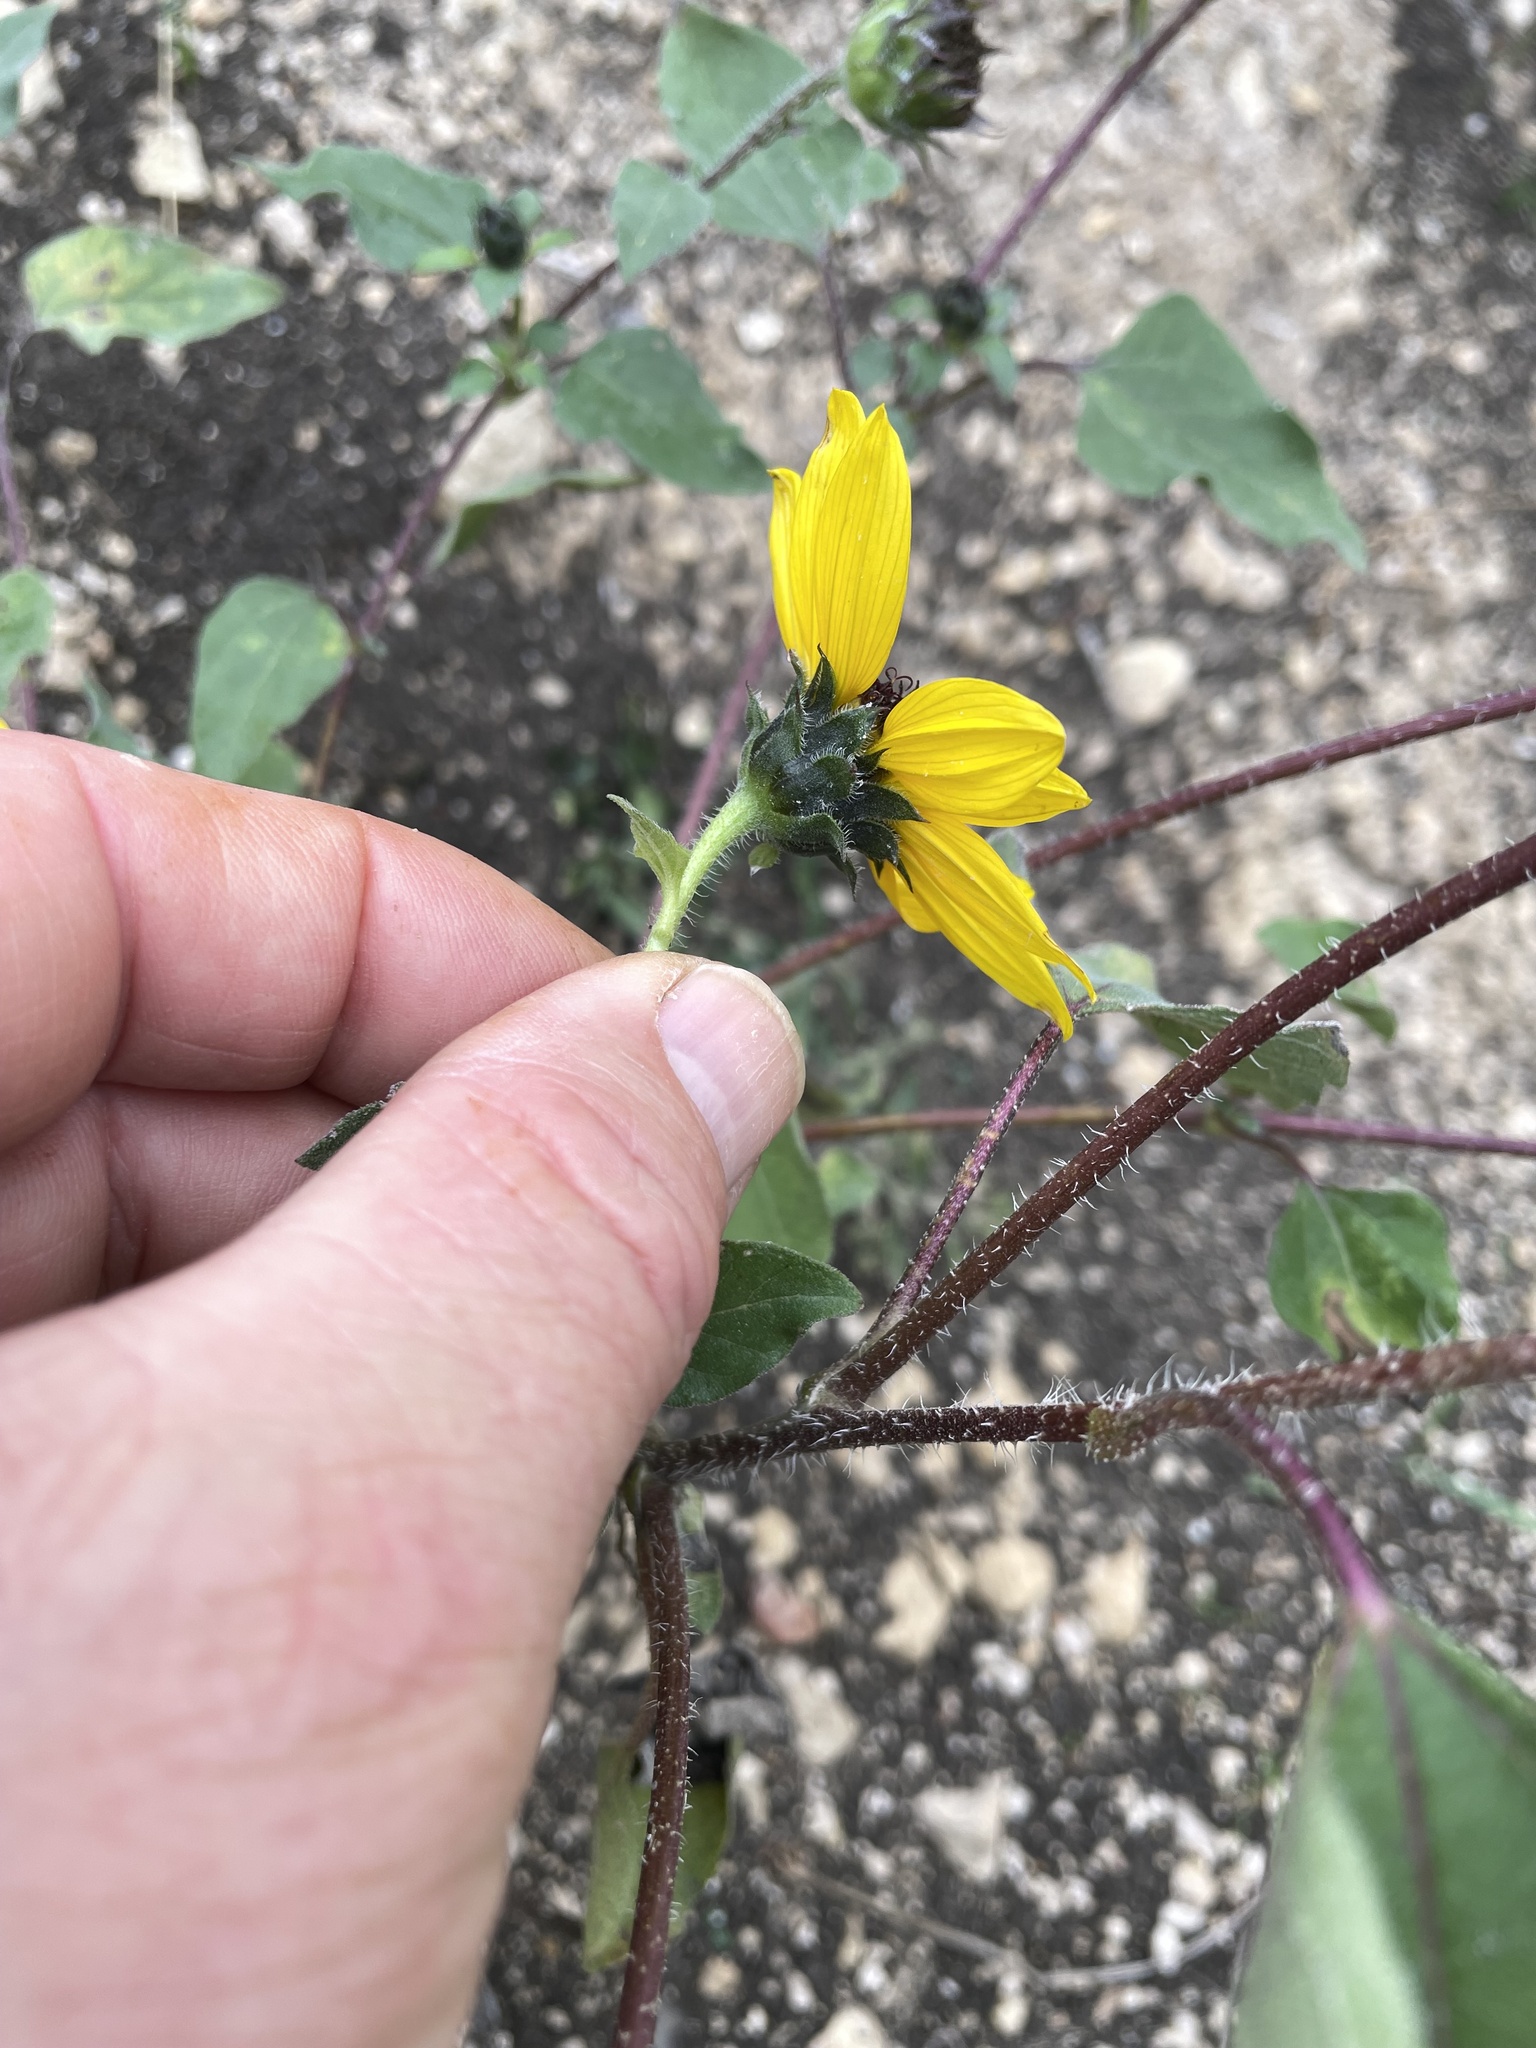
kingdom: Plantae
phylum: Tracheophyta
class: Magnoliopsida
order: Asterales
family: Asteraceae
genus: Helianthus
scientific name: Helianthus annuus
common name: Sunflower
